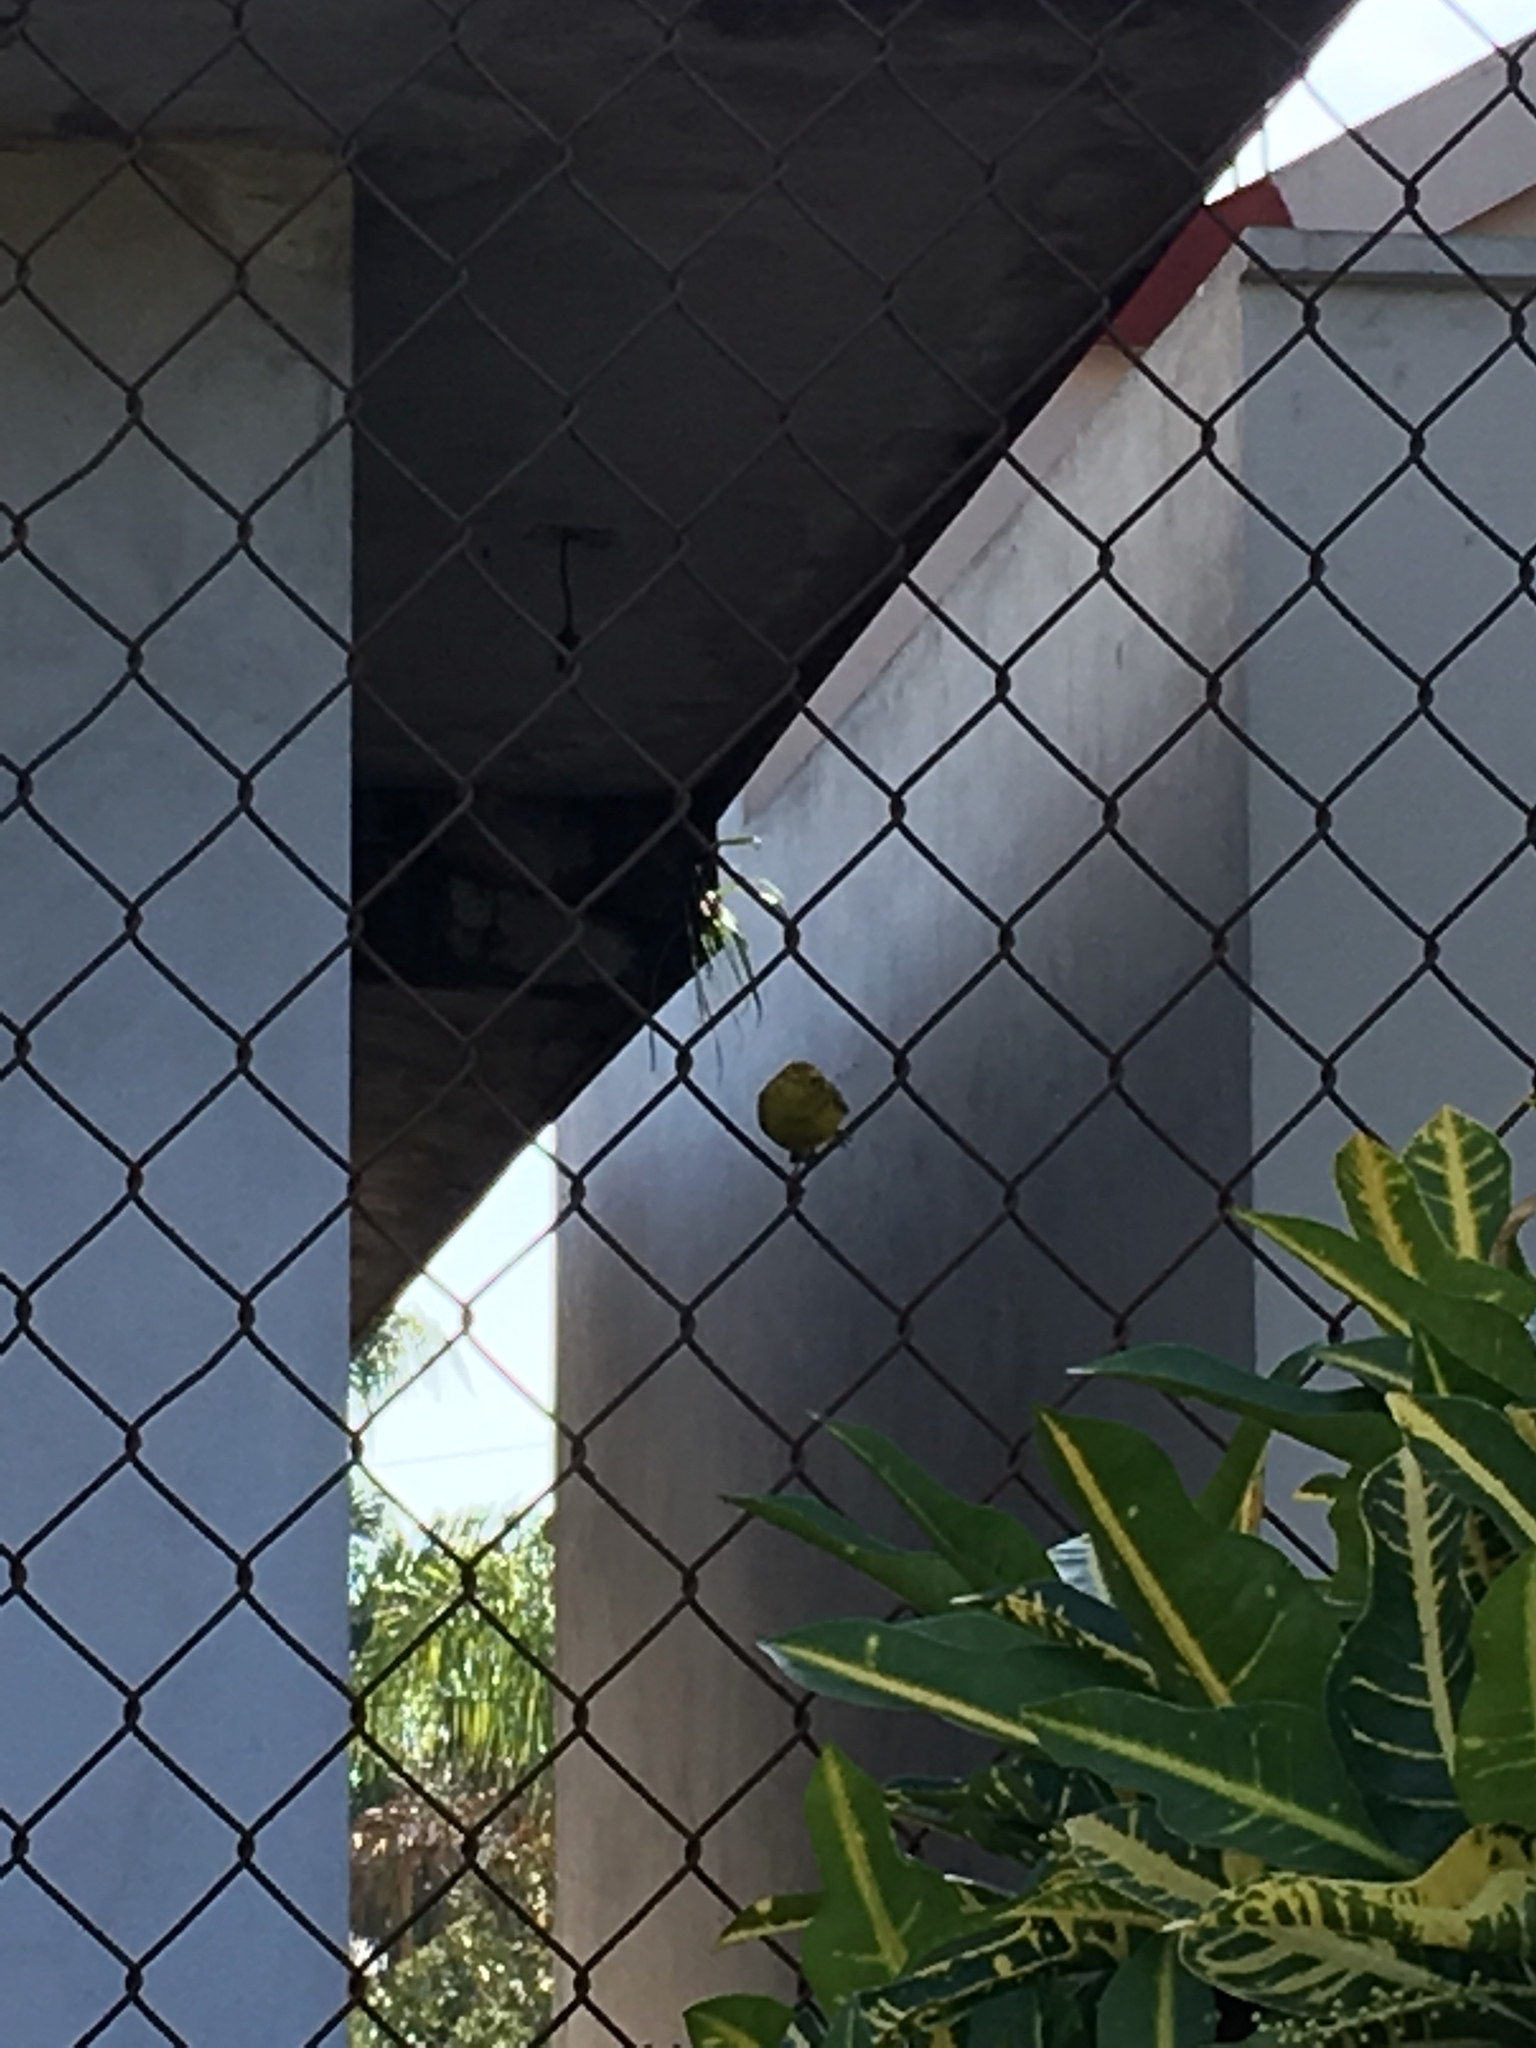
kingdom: Animalia
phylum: Chordata
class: Aves
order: Passeriformes
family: Parulidae
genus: Cardellina
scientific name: Cardellina pusilla
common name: Wilson's warbler
